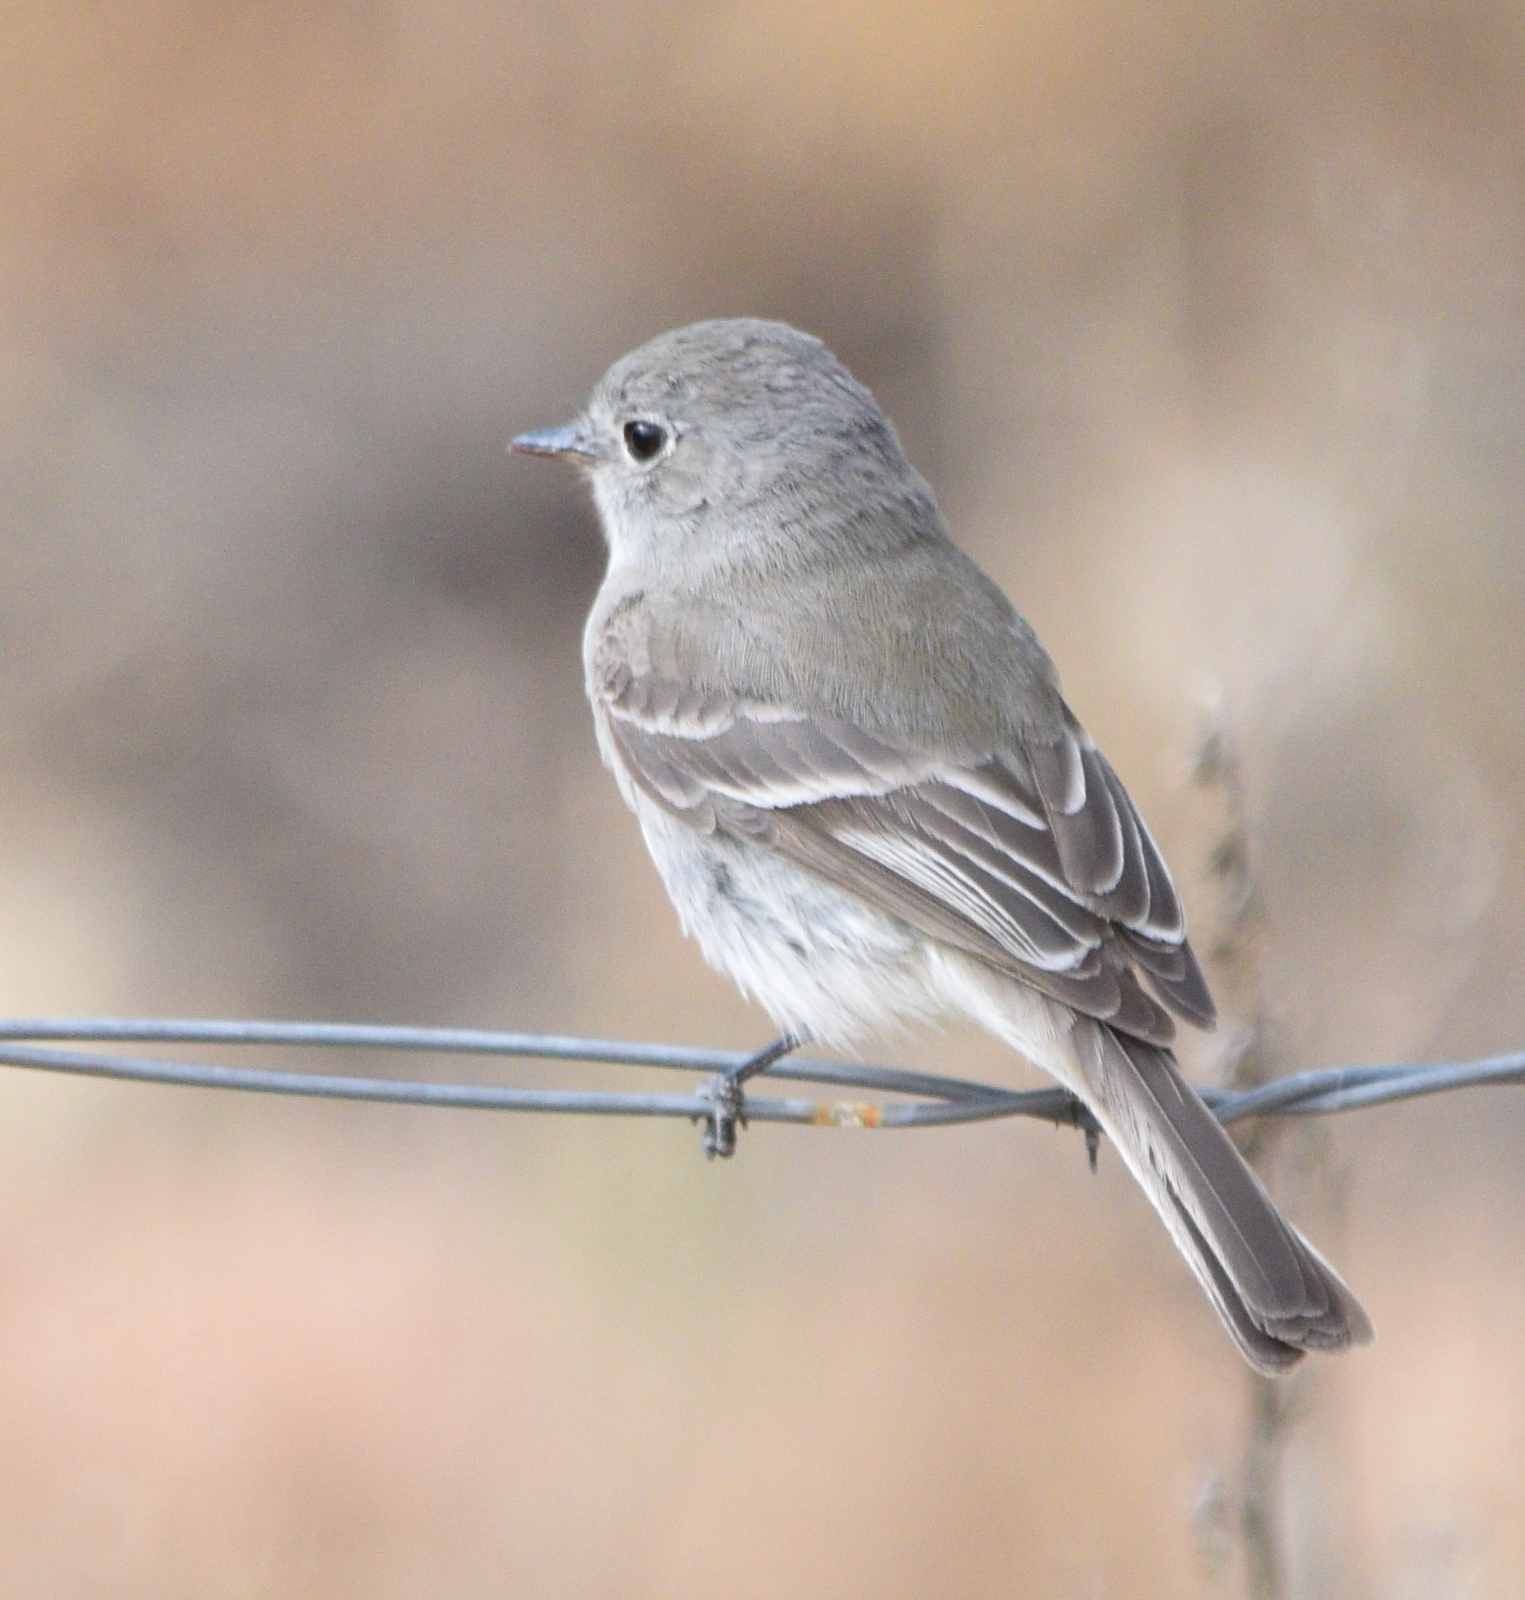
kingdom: Animalia
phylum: Chordata
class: Aves
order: Passeriformes
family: Tyrannidae
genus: Empidonax
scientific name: Empidonax wrightii
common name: Gray flycatcher
